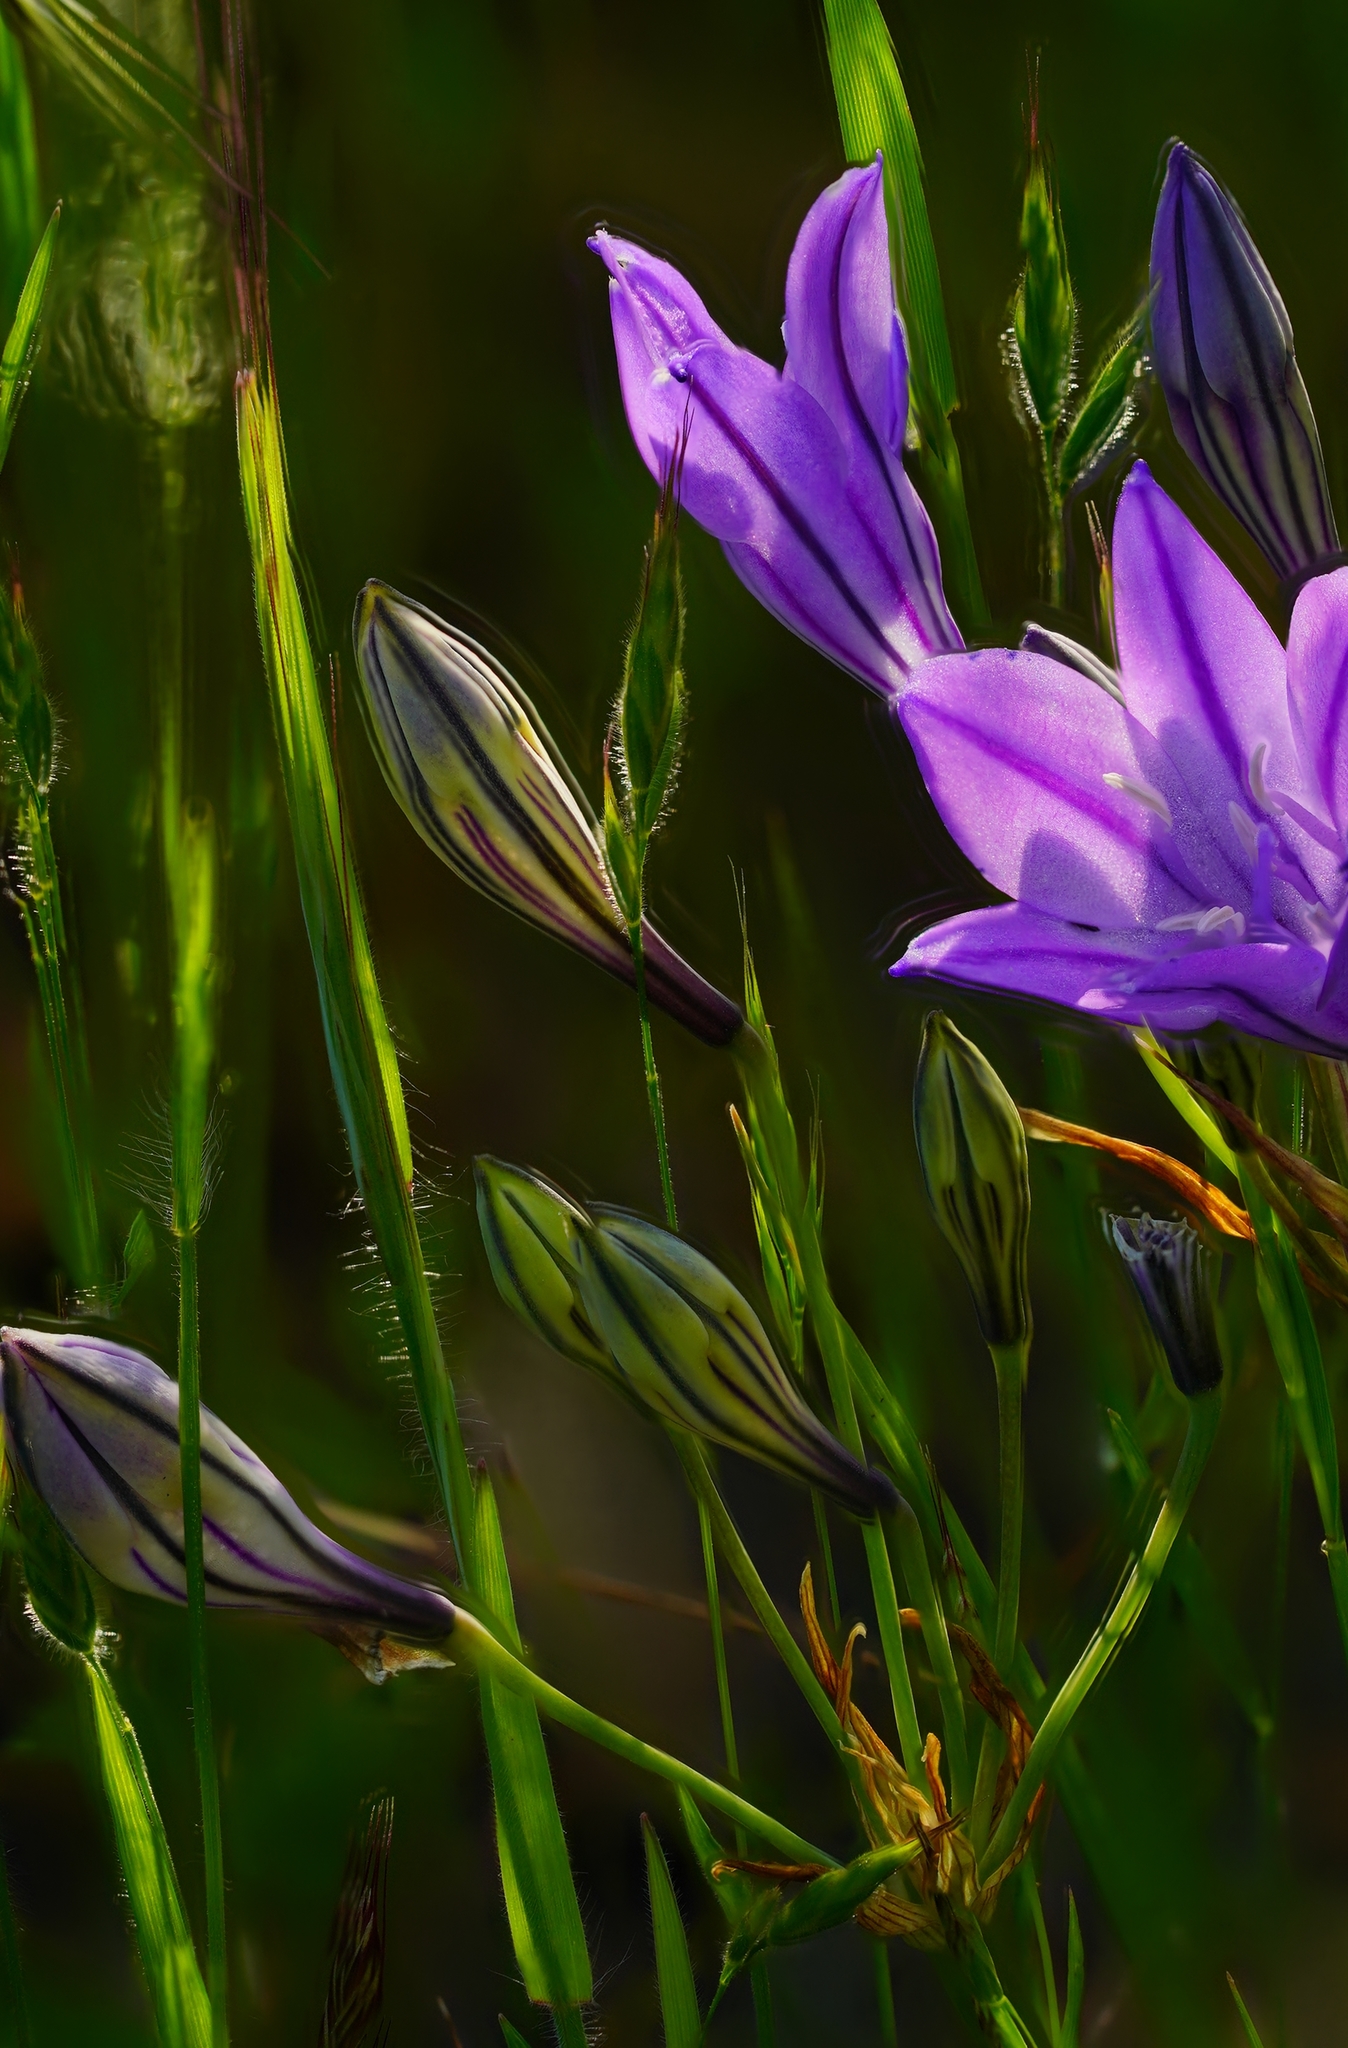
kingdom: Plantae
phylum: Tracheophyta
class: Liliopsida
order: Asparagales
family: Asparagaceae
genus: Triteleia
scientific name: Triteleia laxa
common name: Triplet-lily
